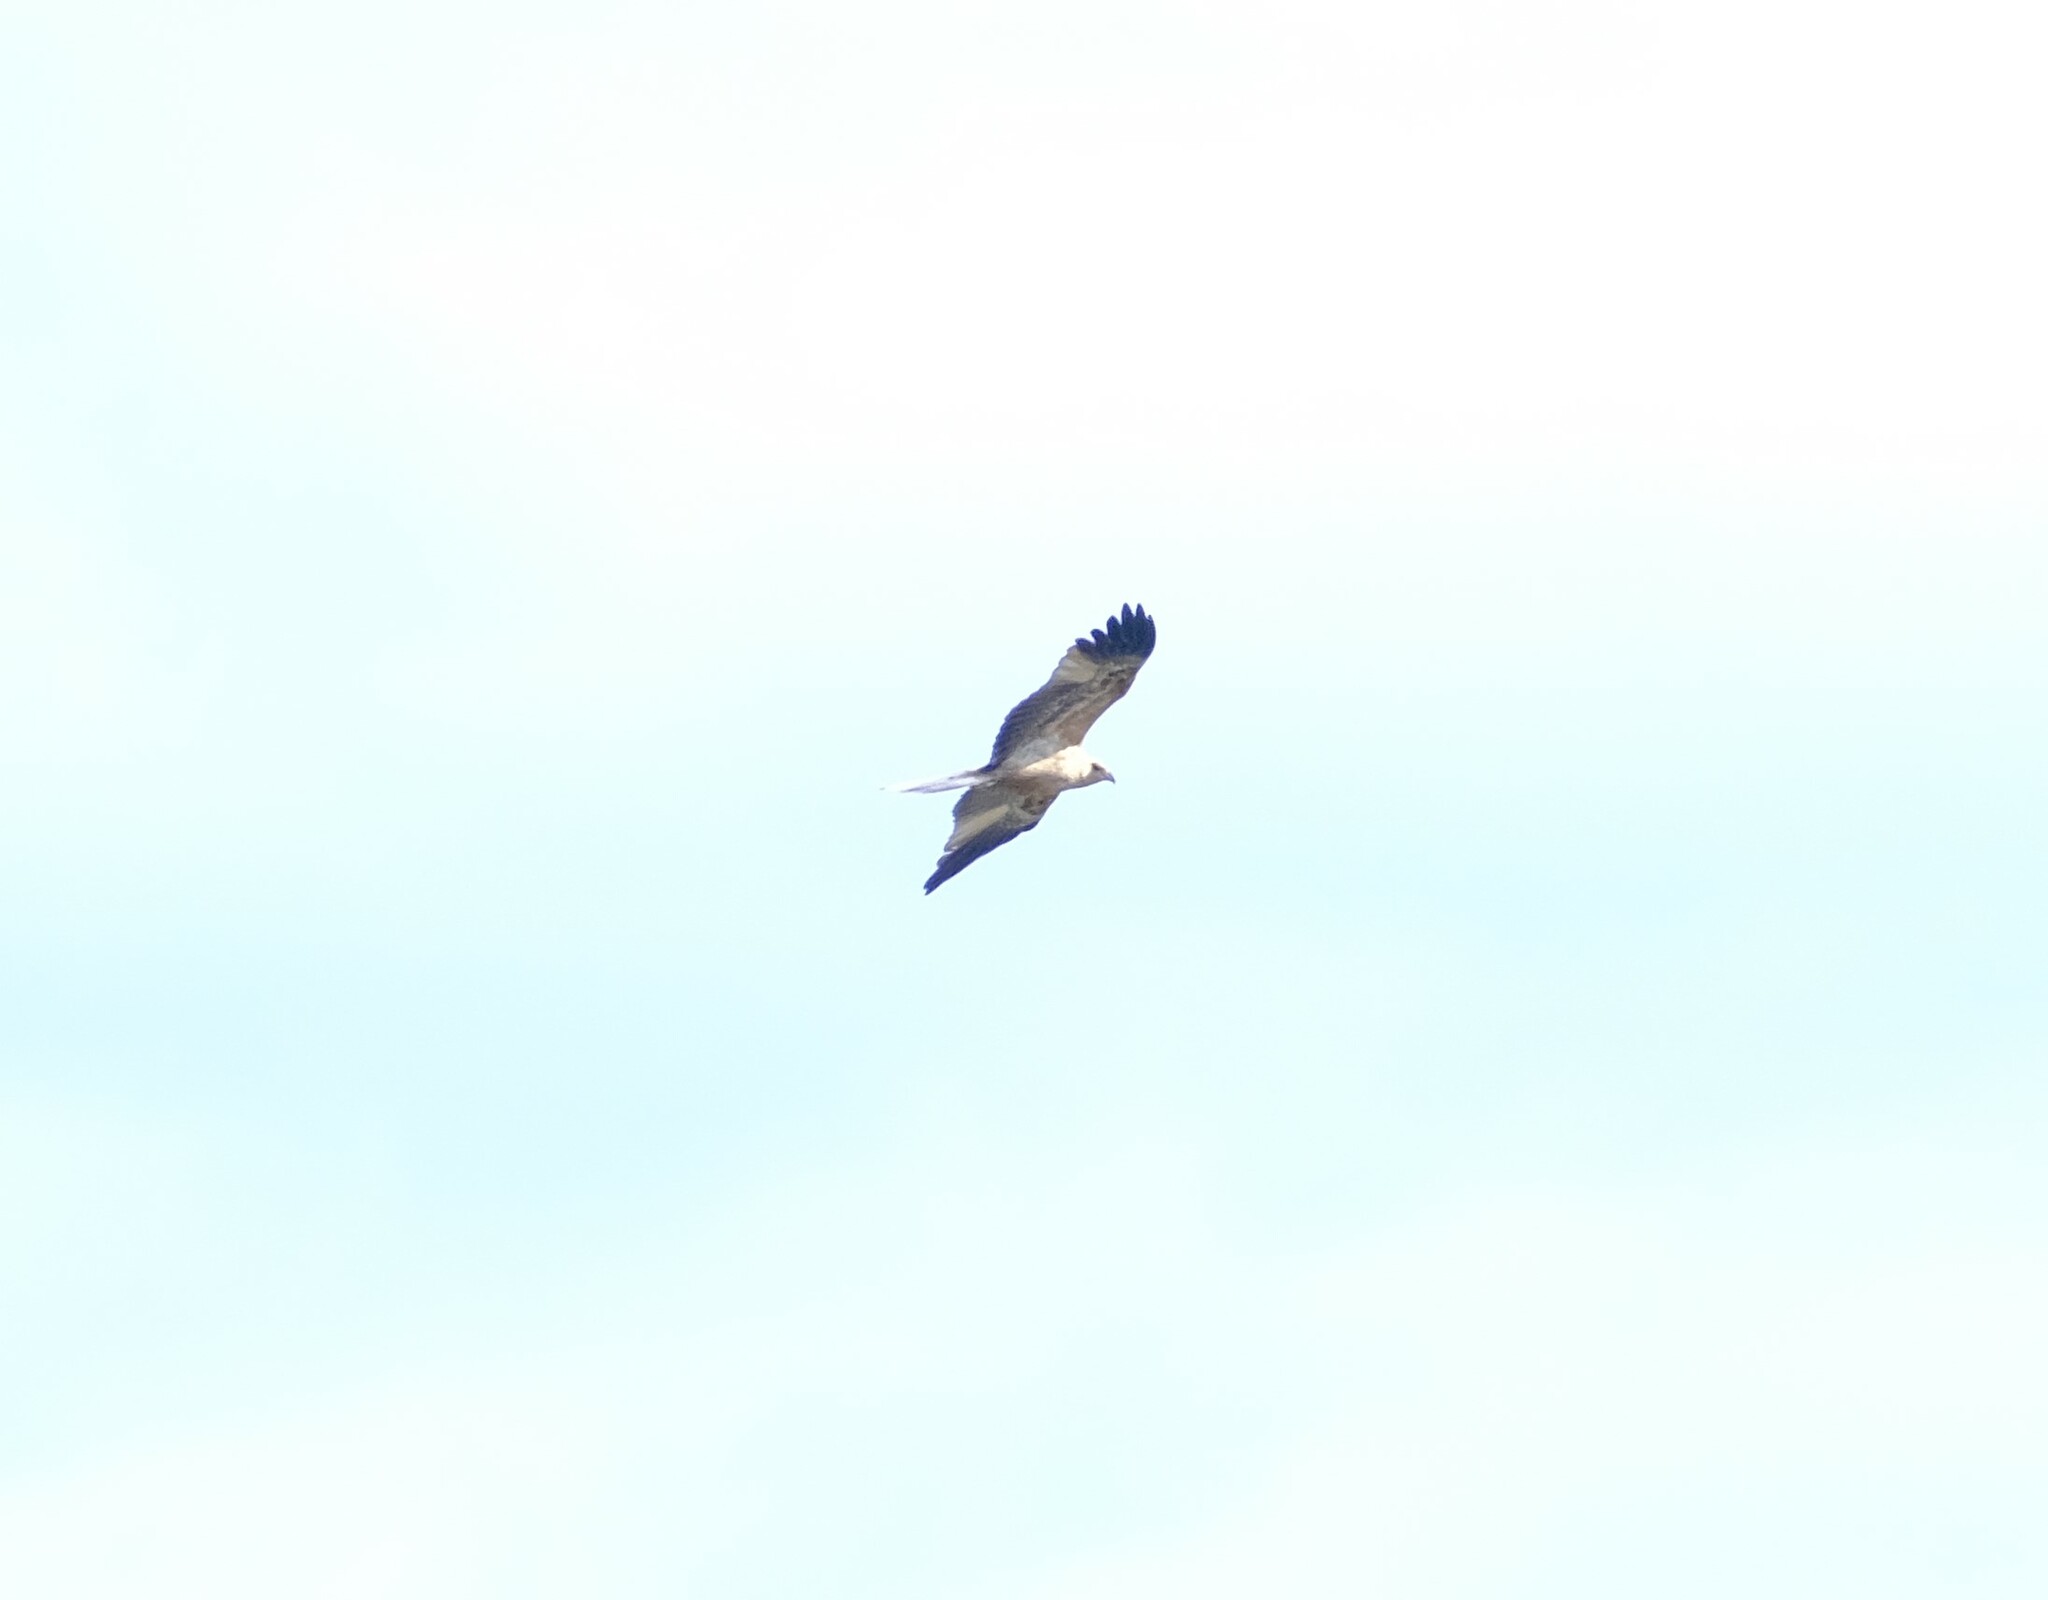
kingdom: Animalia
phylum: Chordata
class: Aves
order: Accipitriformes
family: Accipitridae
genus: Haliastur
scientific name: Haliastur sphenurus
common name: Whistling kite
